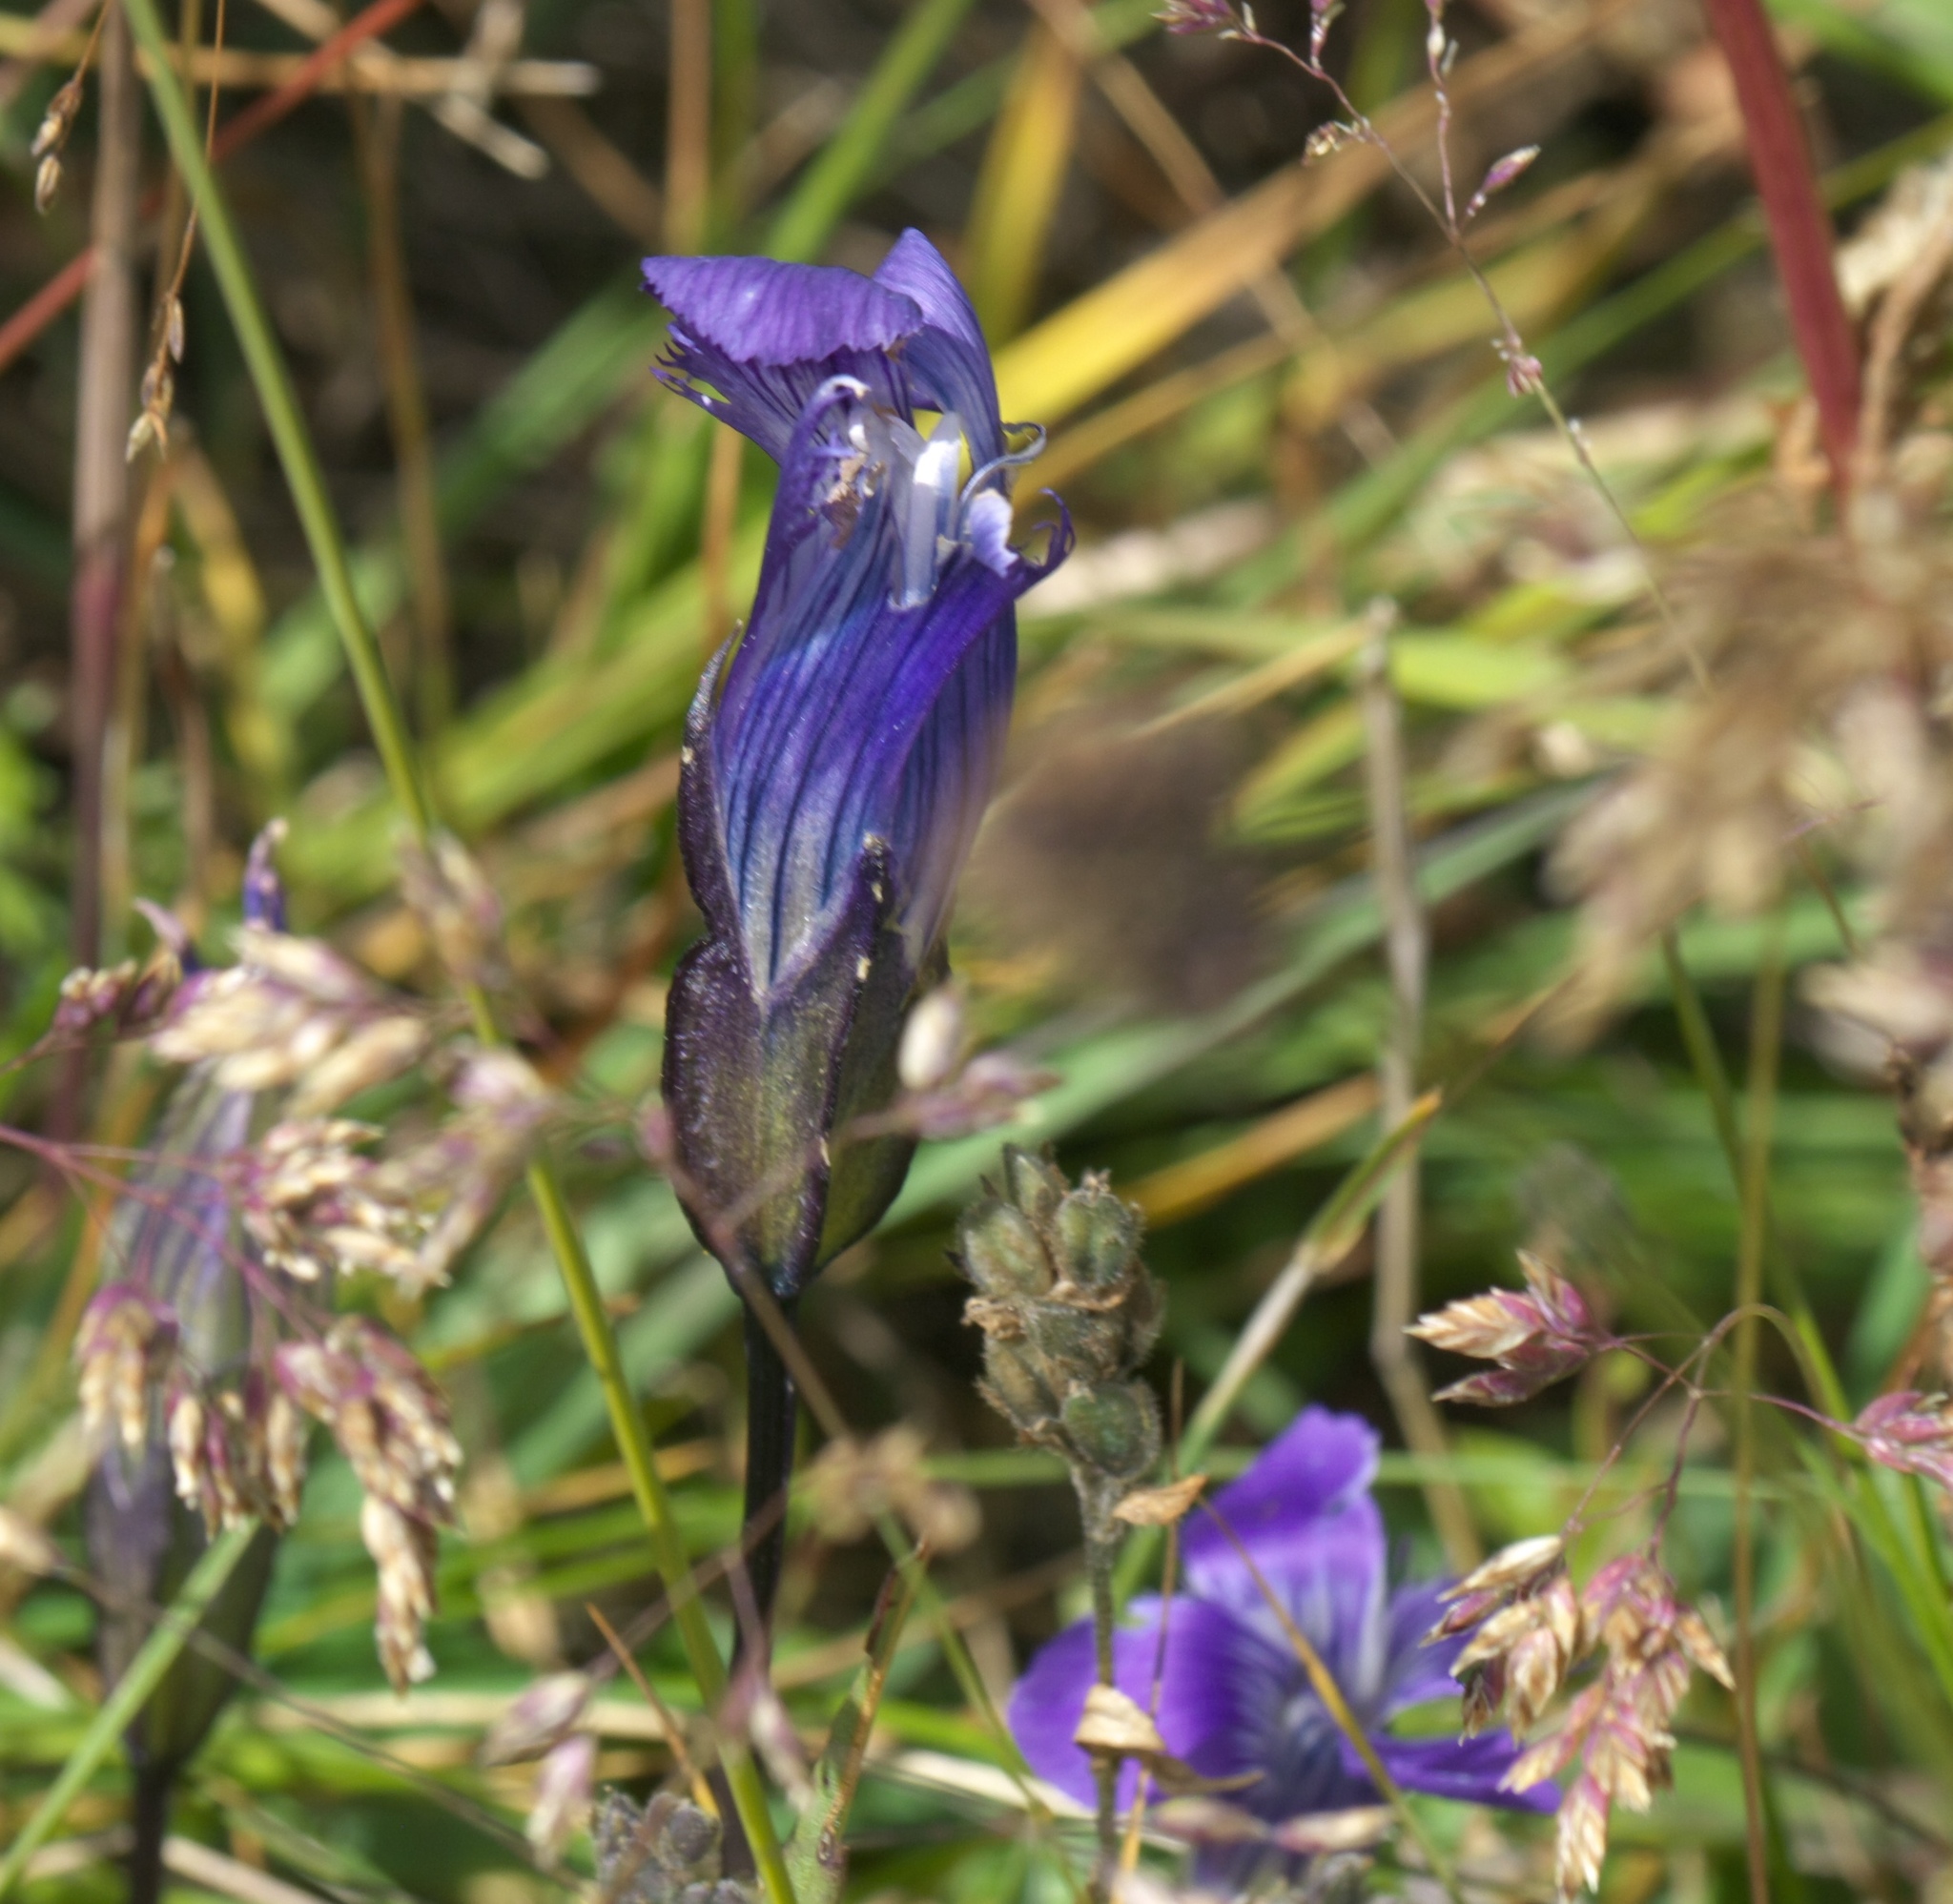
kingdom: Plantae
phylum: Tracheophyta
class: Magnoliopsida
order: Gentianales
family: Gentianaceae
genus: Gentianopsis
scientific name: Gentianopsis thermalis
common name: Rocky mountain fringed-gentian
